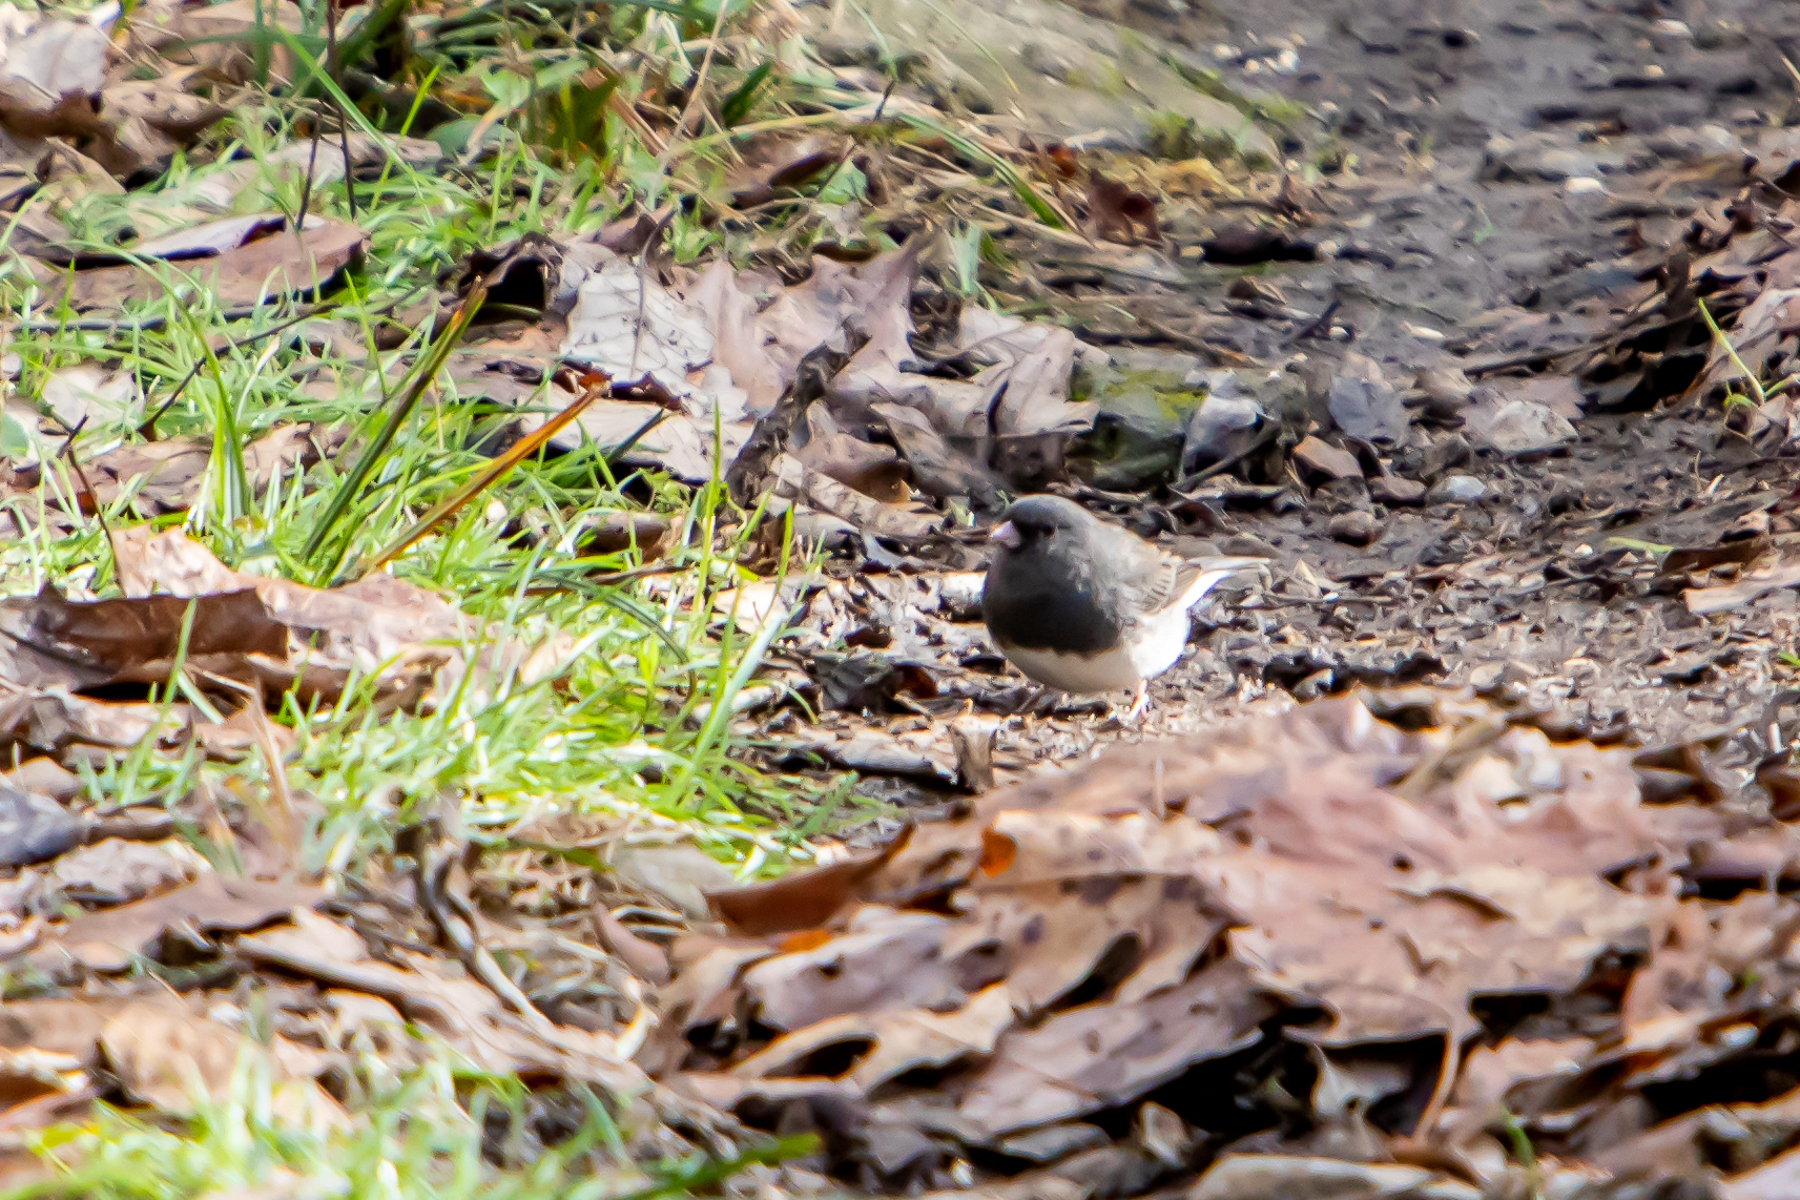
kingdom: Animalia
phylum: Chordata
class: Aves
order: Passeriformes
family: Passerellidae
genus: Junco
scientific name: Junco hyemalis
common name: Dark-eyed junco
